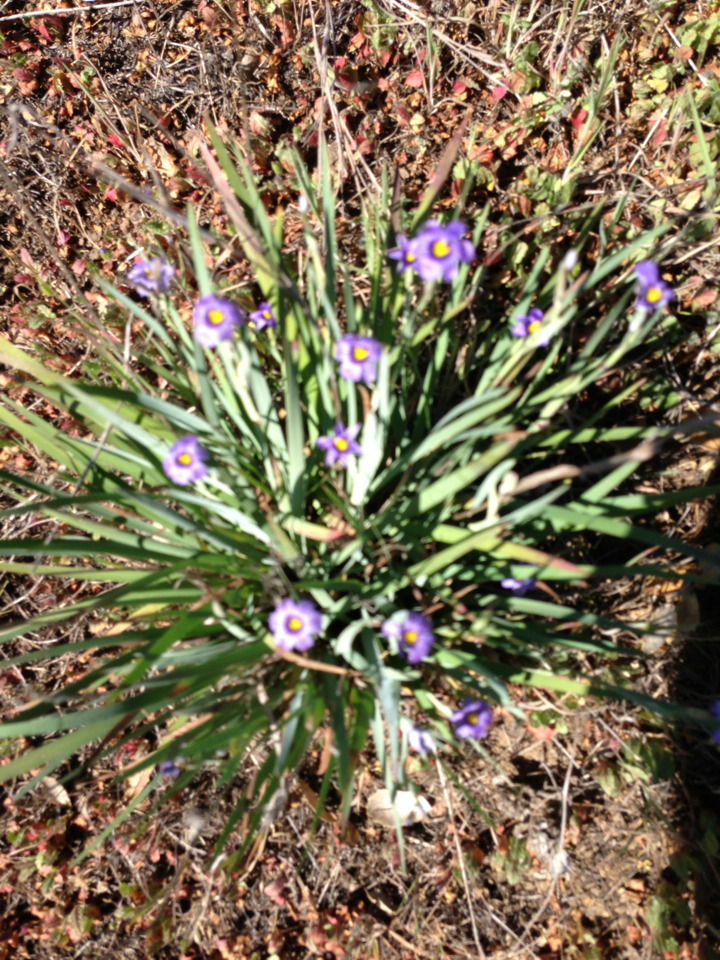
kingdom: Plantae
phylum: Tracheophyta
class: Liliopsida
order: Asparagales
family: Iridaceae
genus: Sisyrinchium
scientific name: Sisyrinchium bellum
